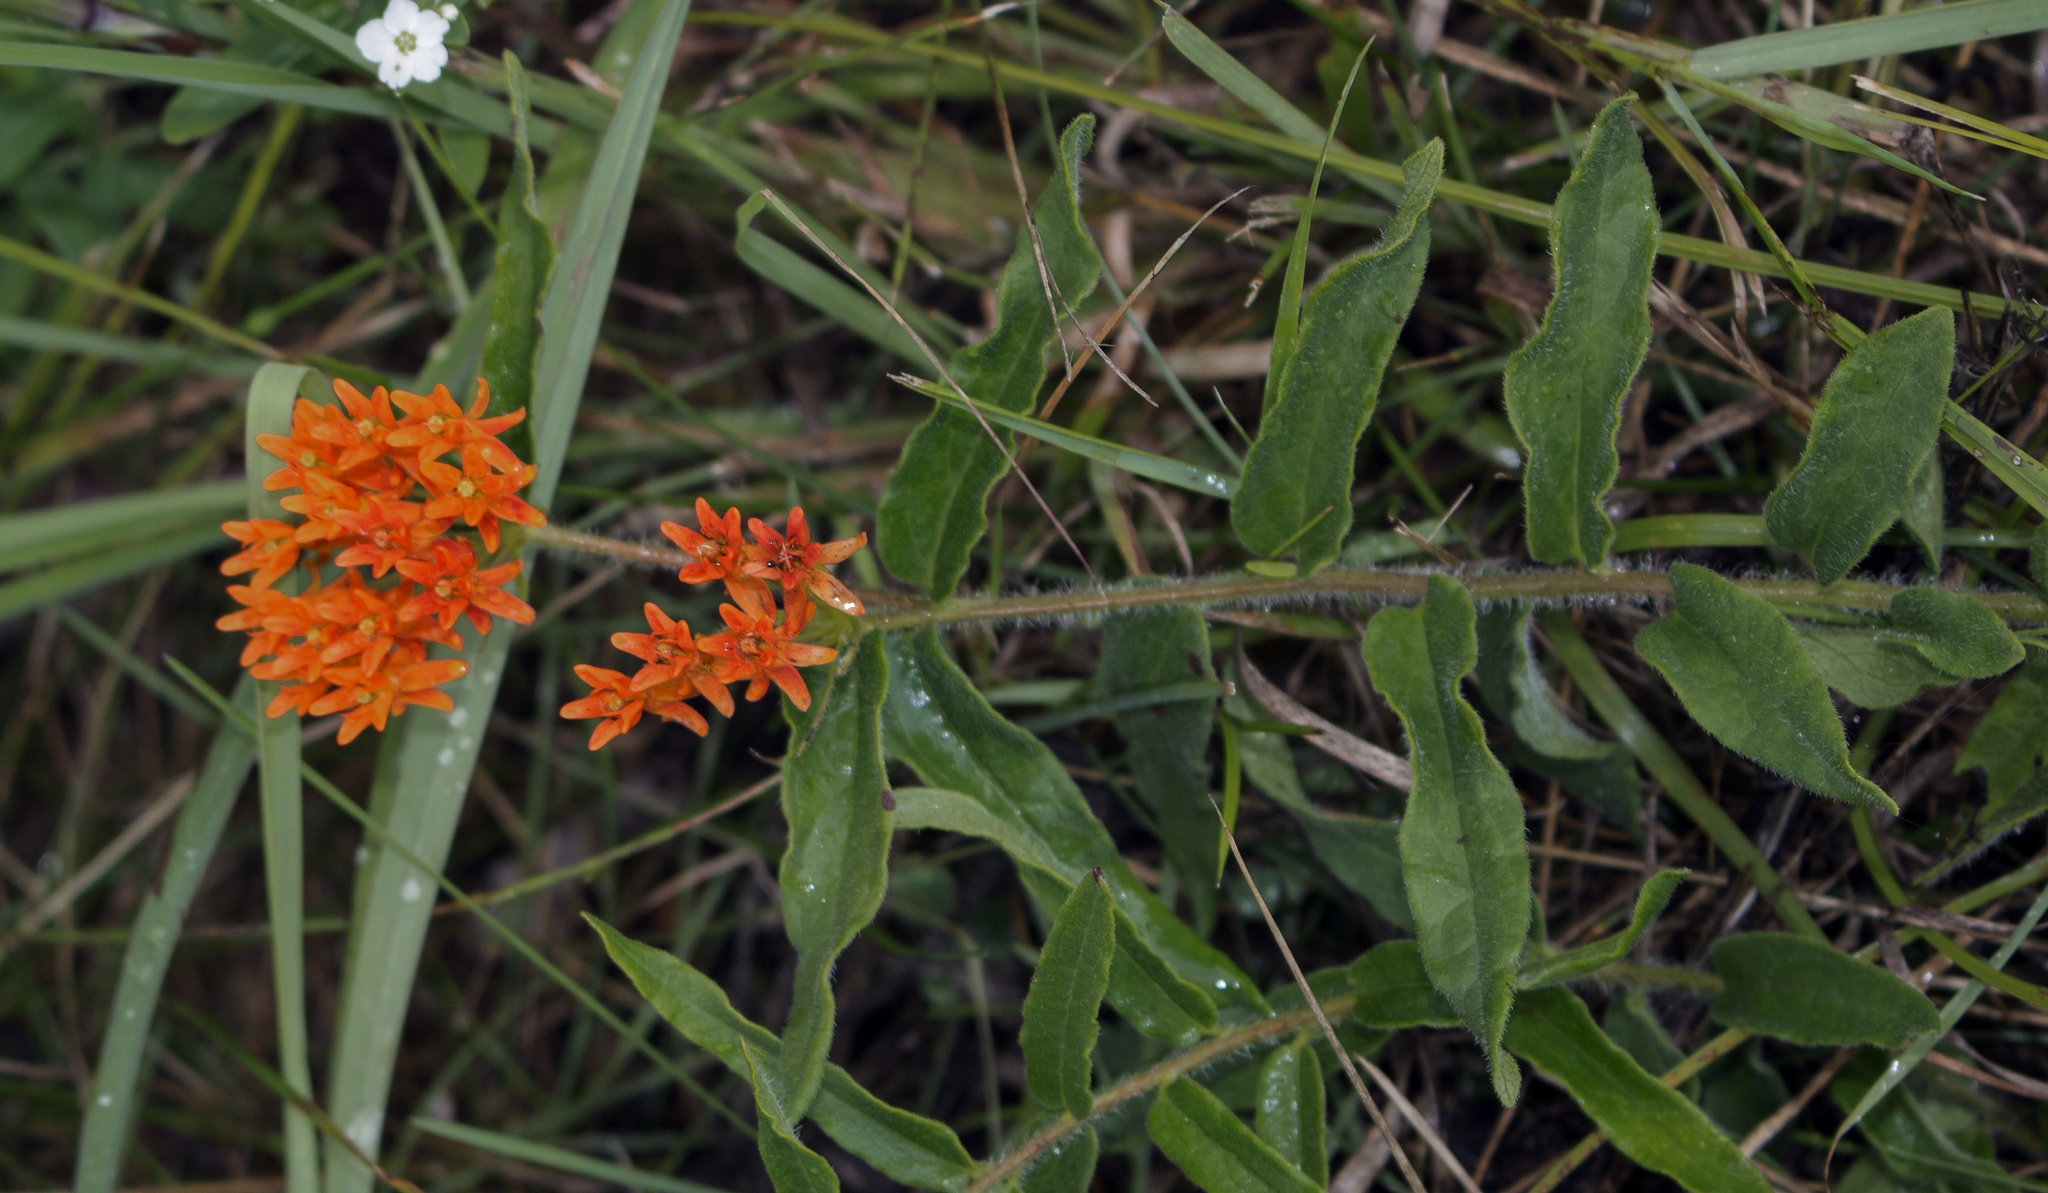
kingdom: Plantae
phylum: Tracheophyta
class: Magnoliopsida
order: Gentianales
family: Apocynaceae
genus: Asclepias
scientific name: Asclepias tuberosa
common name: Butterfly milkweed
